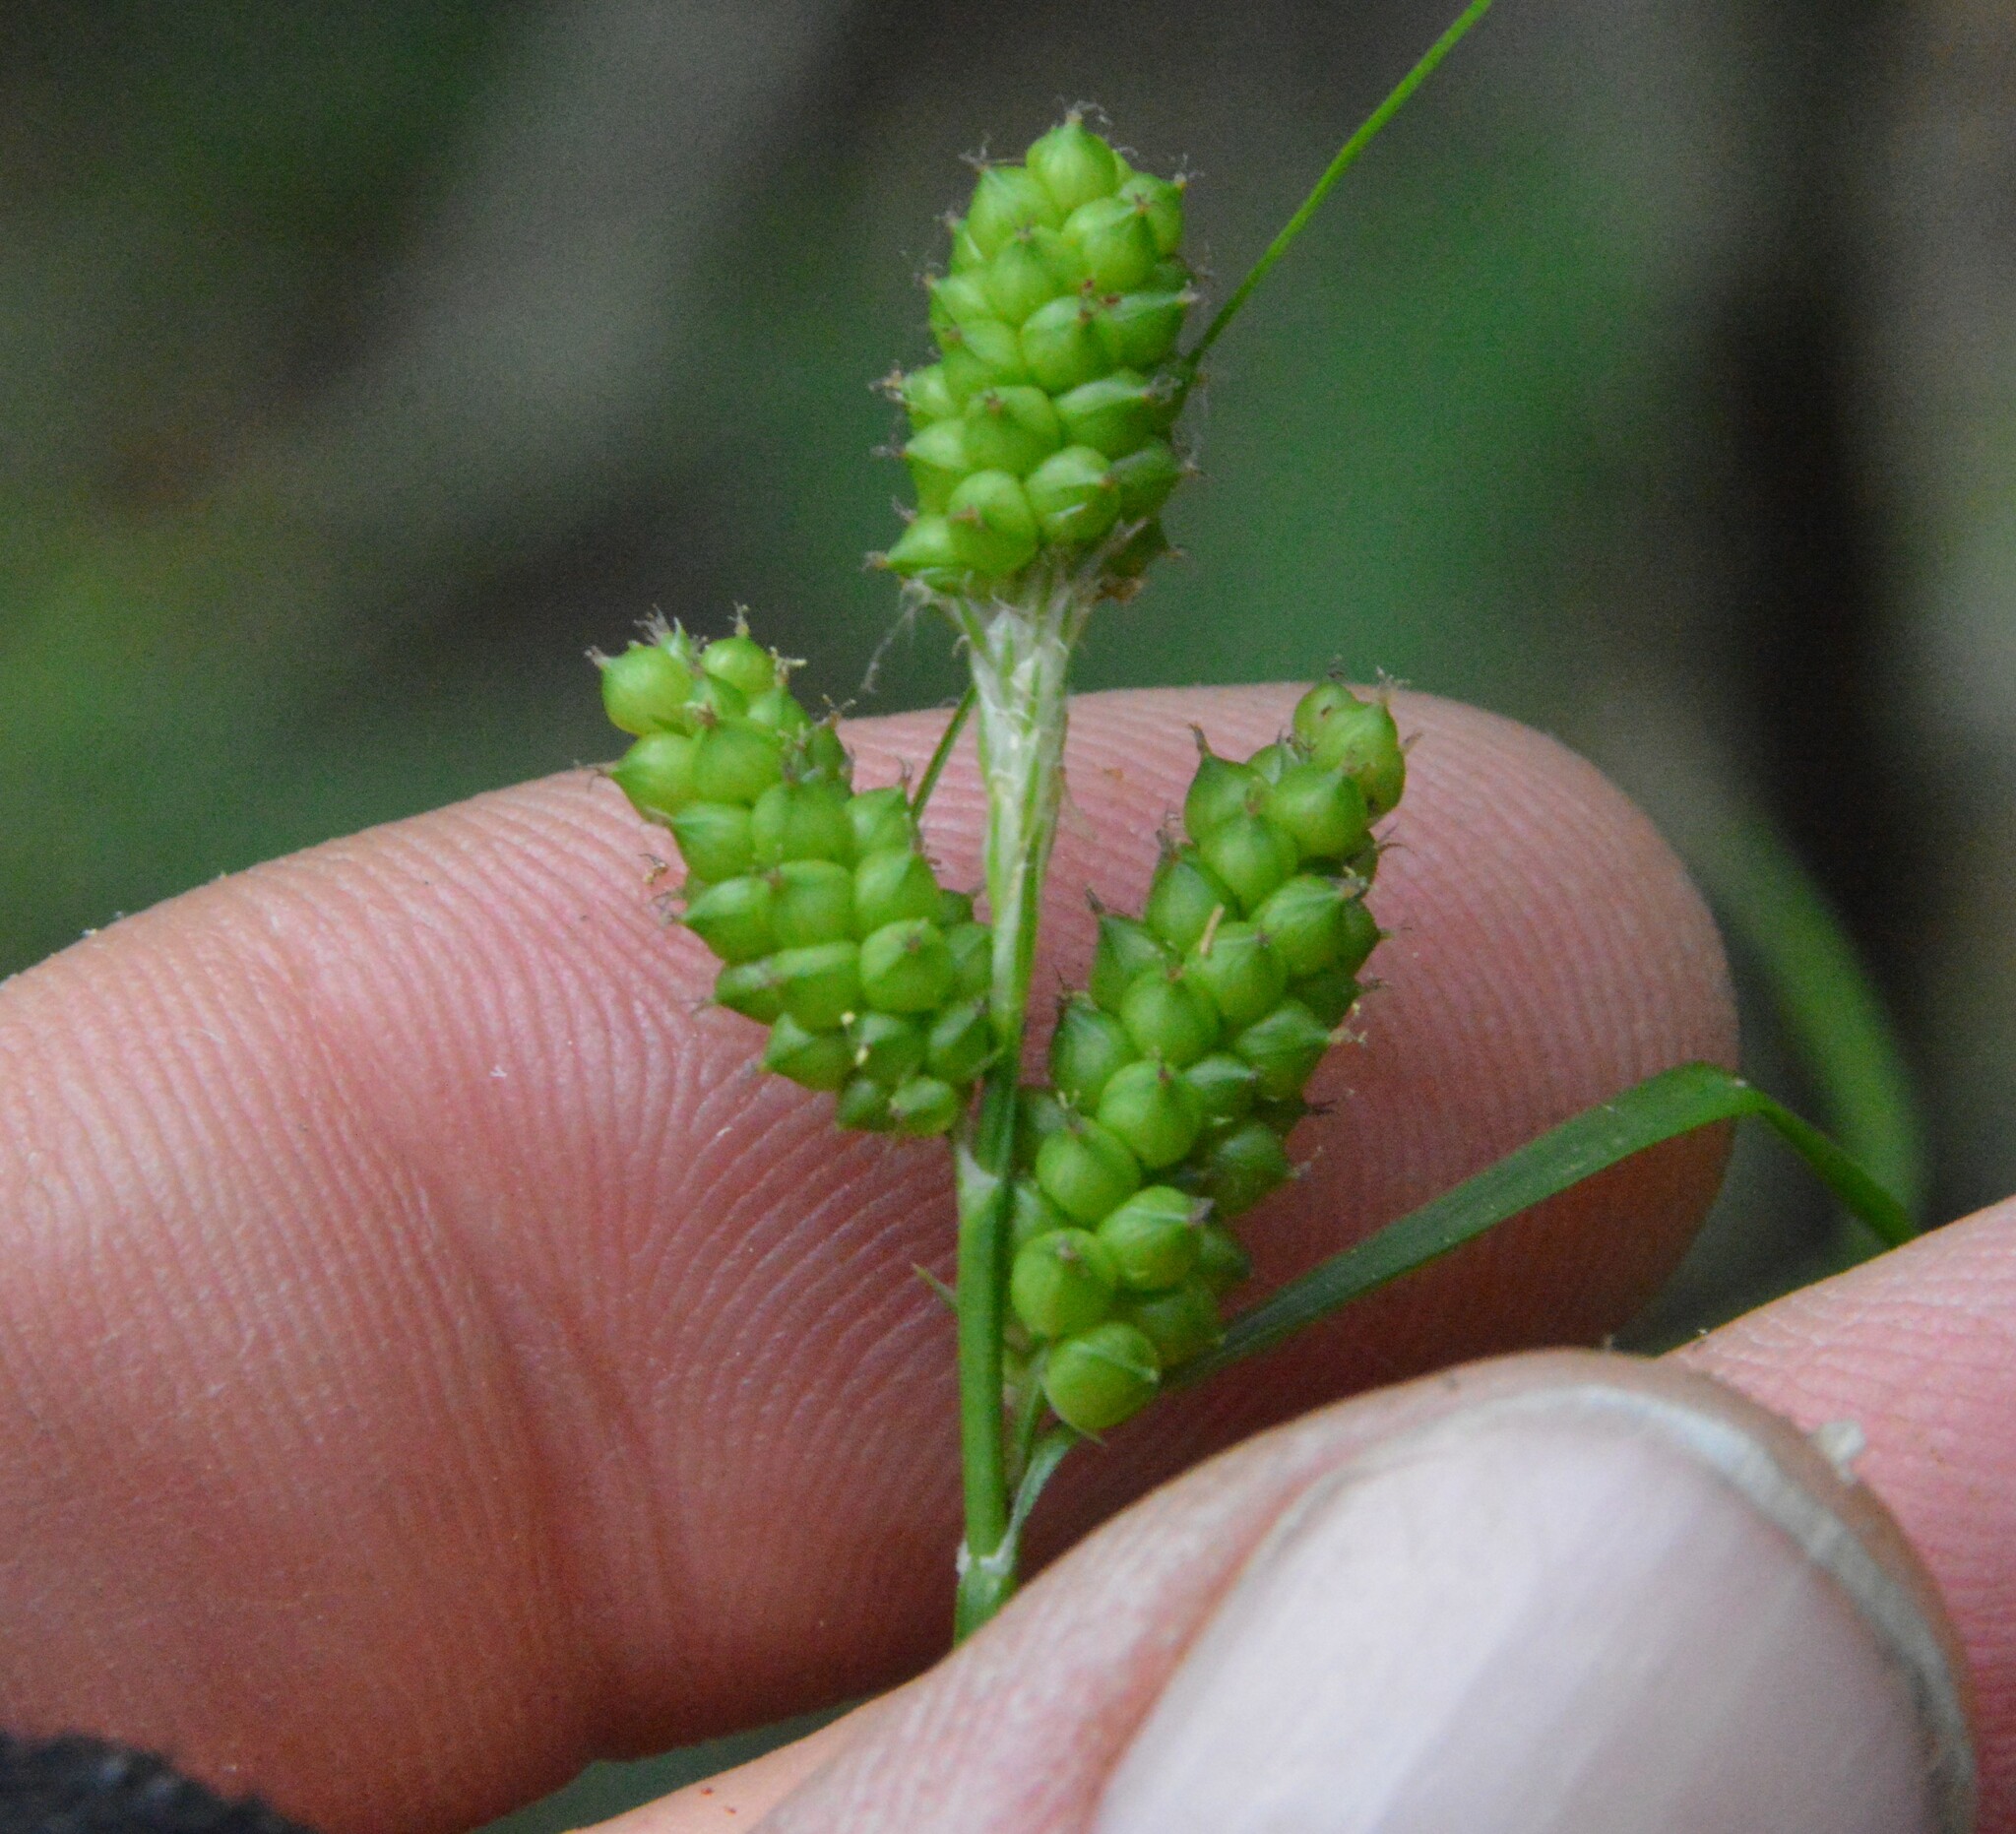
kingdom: Plantae
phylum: Tracheophyta
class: Liliopsida
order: Poales
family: Cyperaceae
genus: Carex
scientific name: Carex caroliniana
